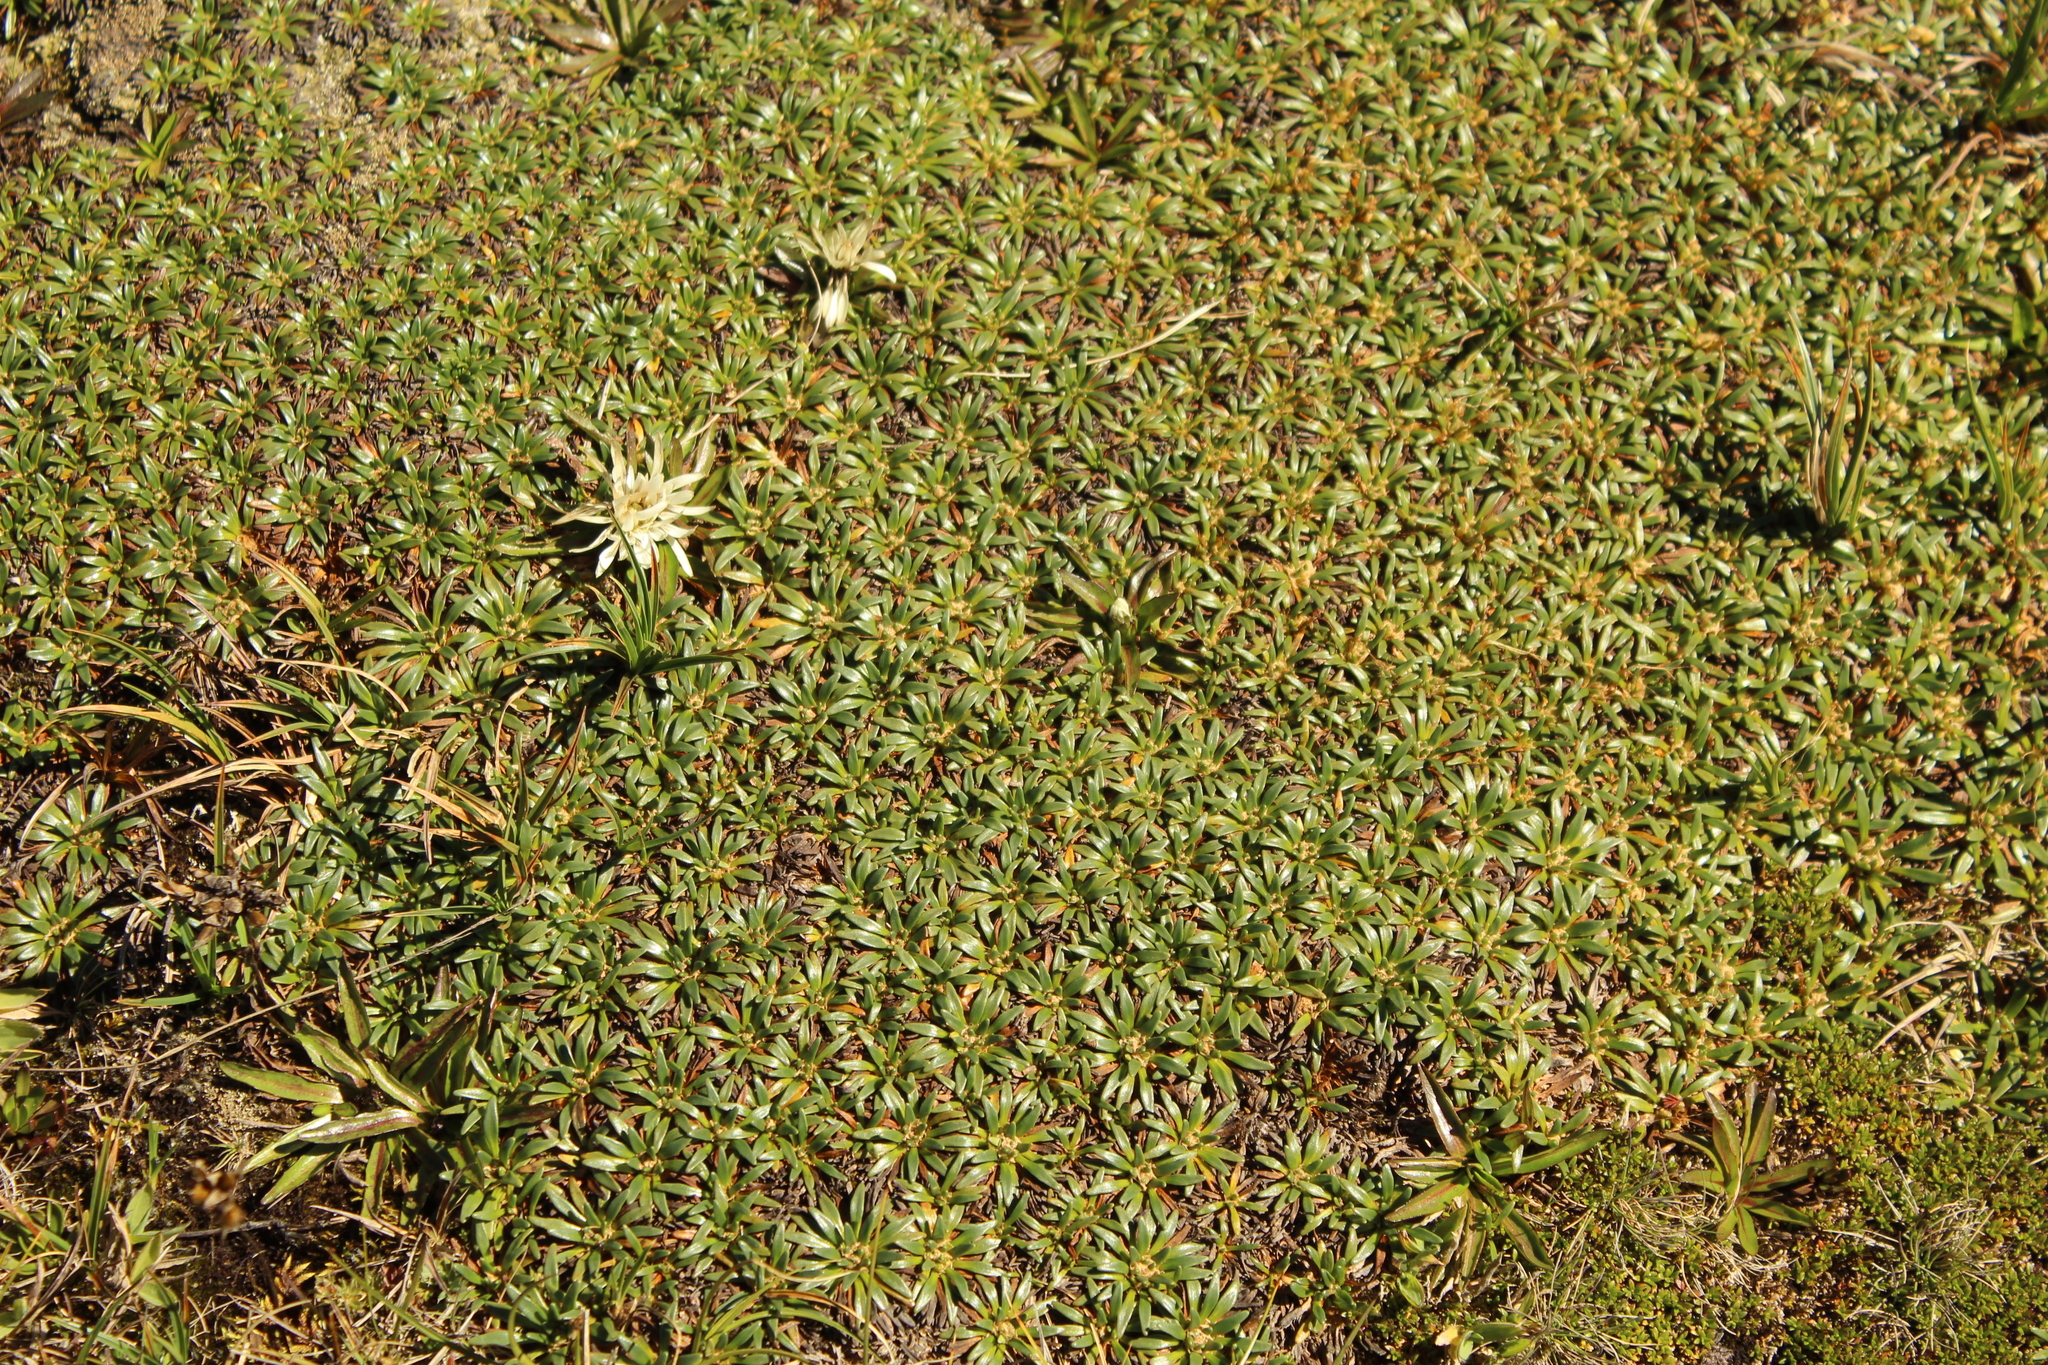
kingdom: Plantae
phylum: Tracheophyta
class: Magnoliopsida
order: Lamiales
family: Plantaginaceae
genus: Plantago
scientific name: Plantago rigida
